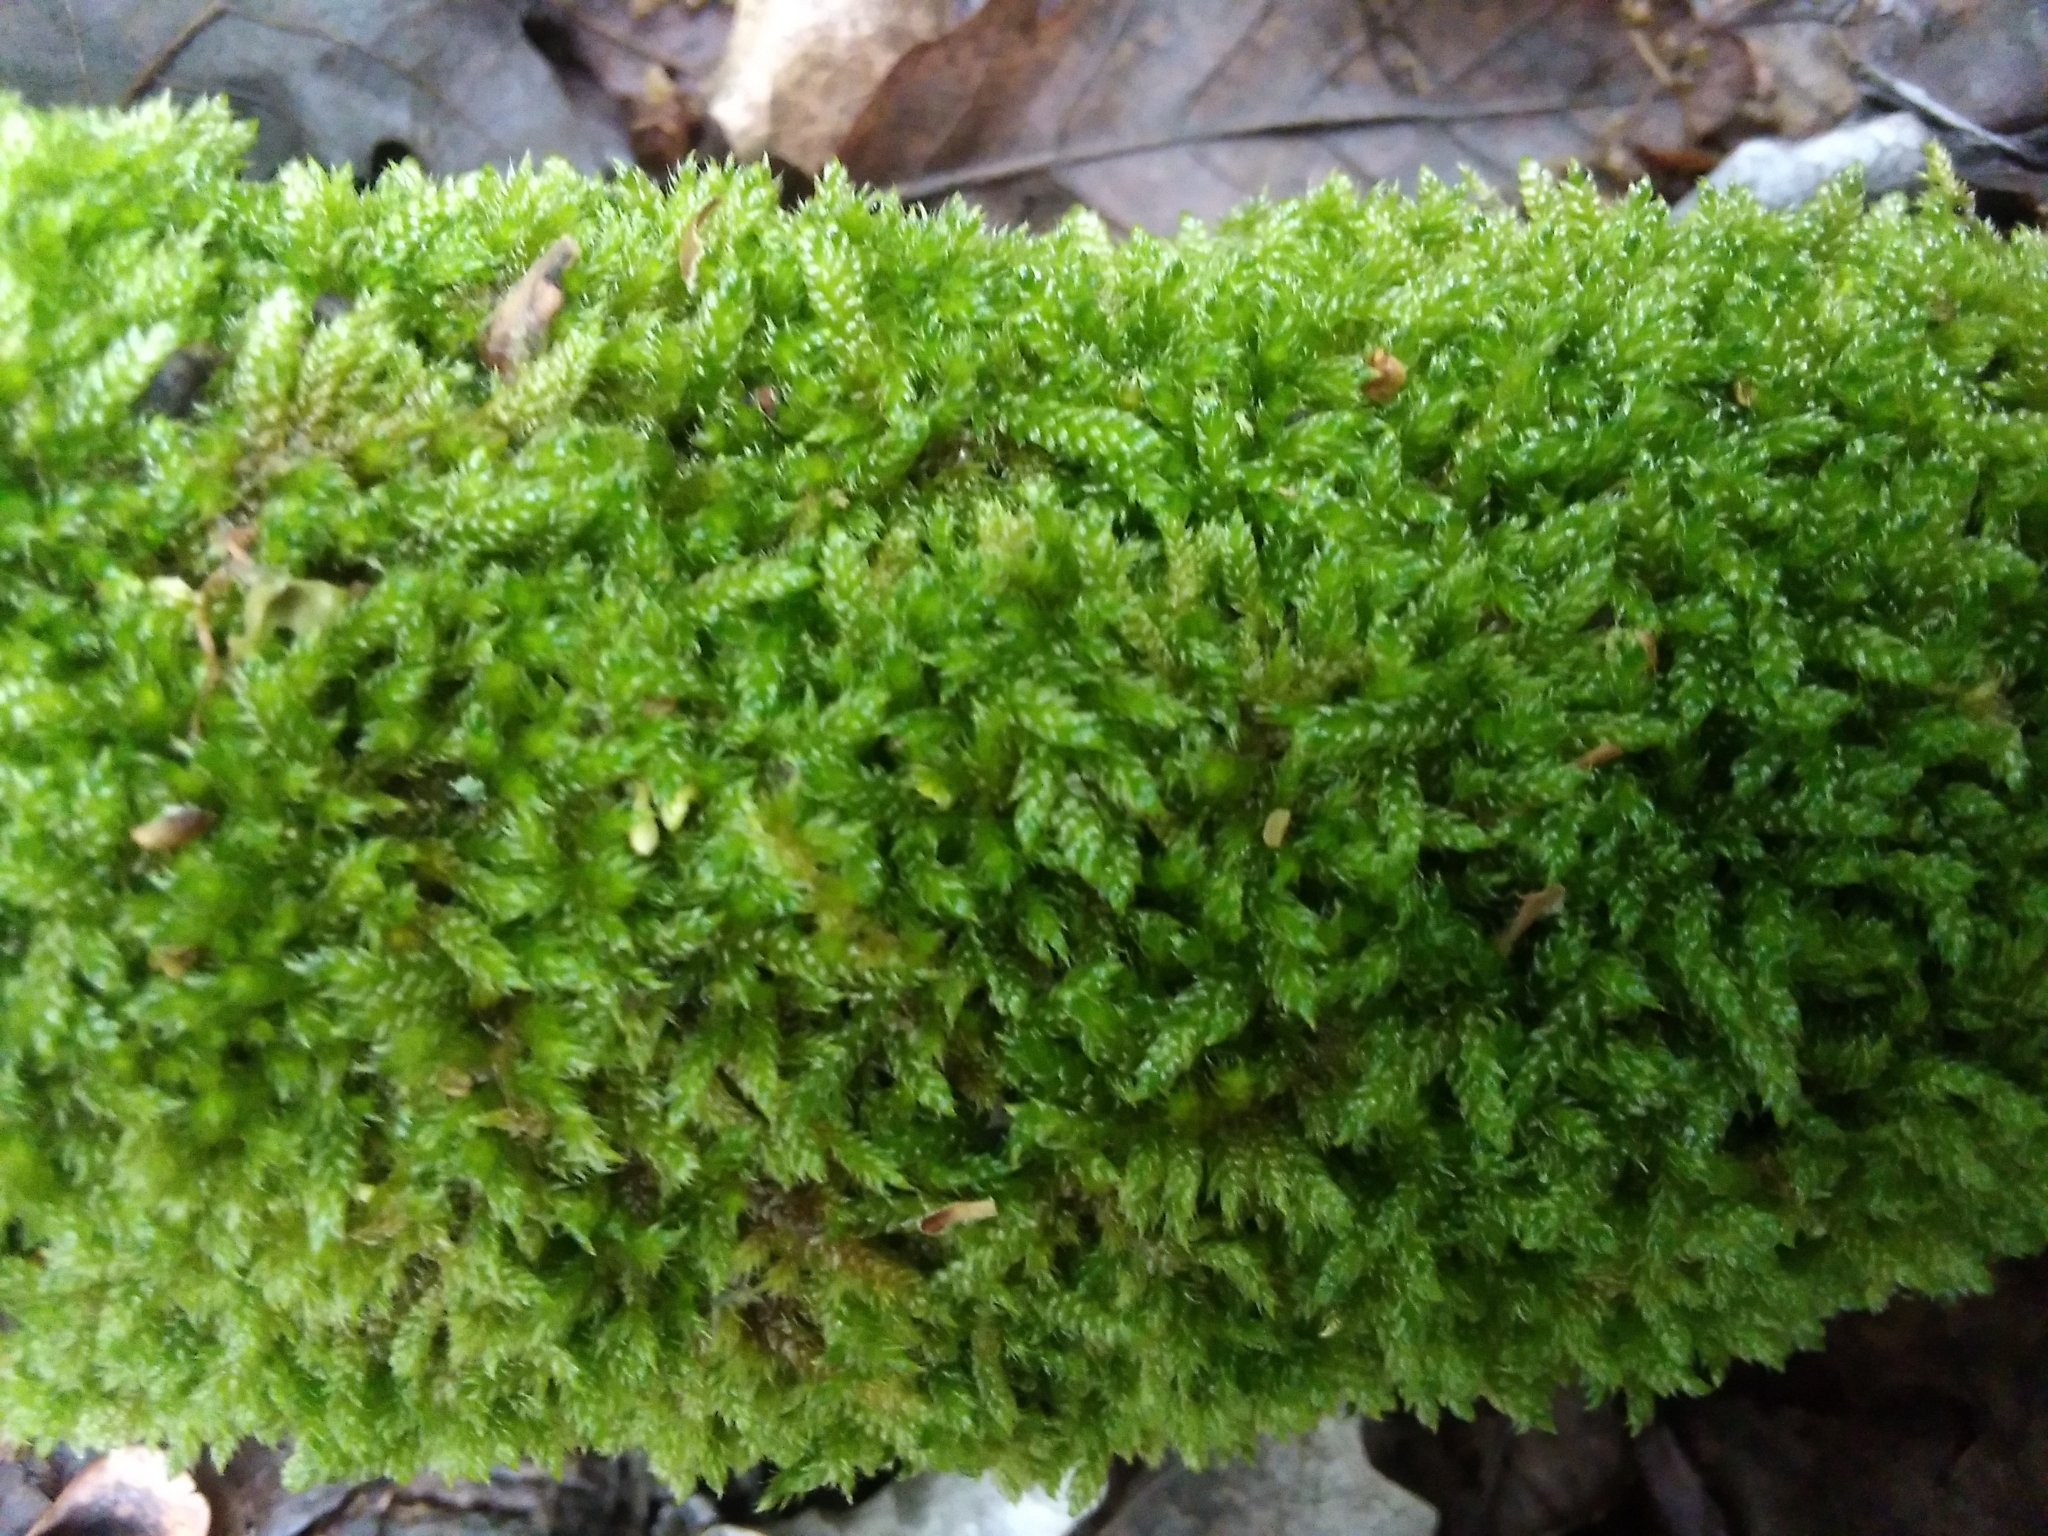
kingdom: Plantae
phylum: Bryophyta
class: Bryopsida
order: Hypnales
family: Hypnaceae
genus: Hypnum
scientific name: Hypnum cupressiforme
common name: Cypress-leaved plait-moss
